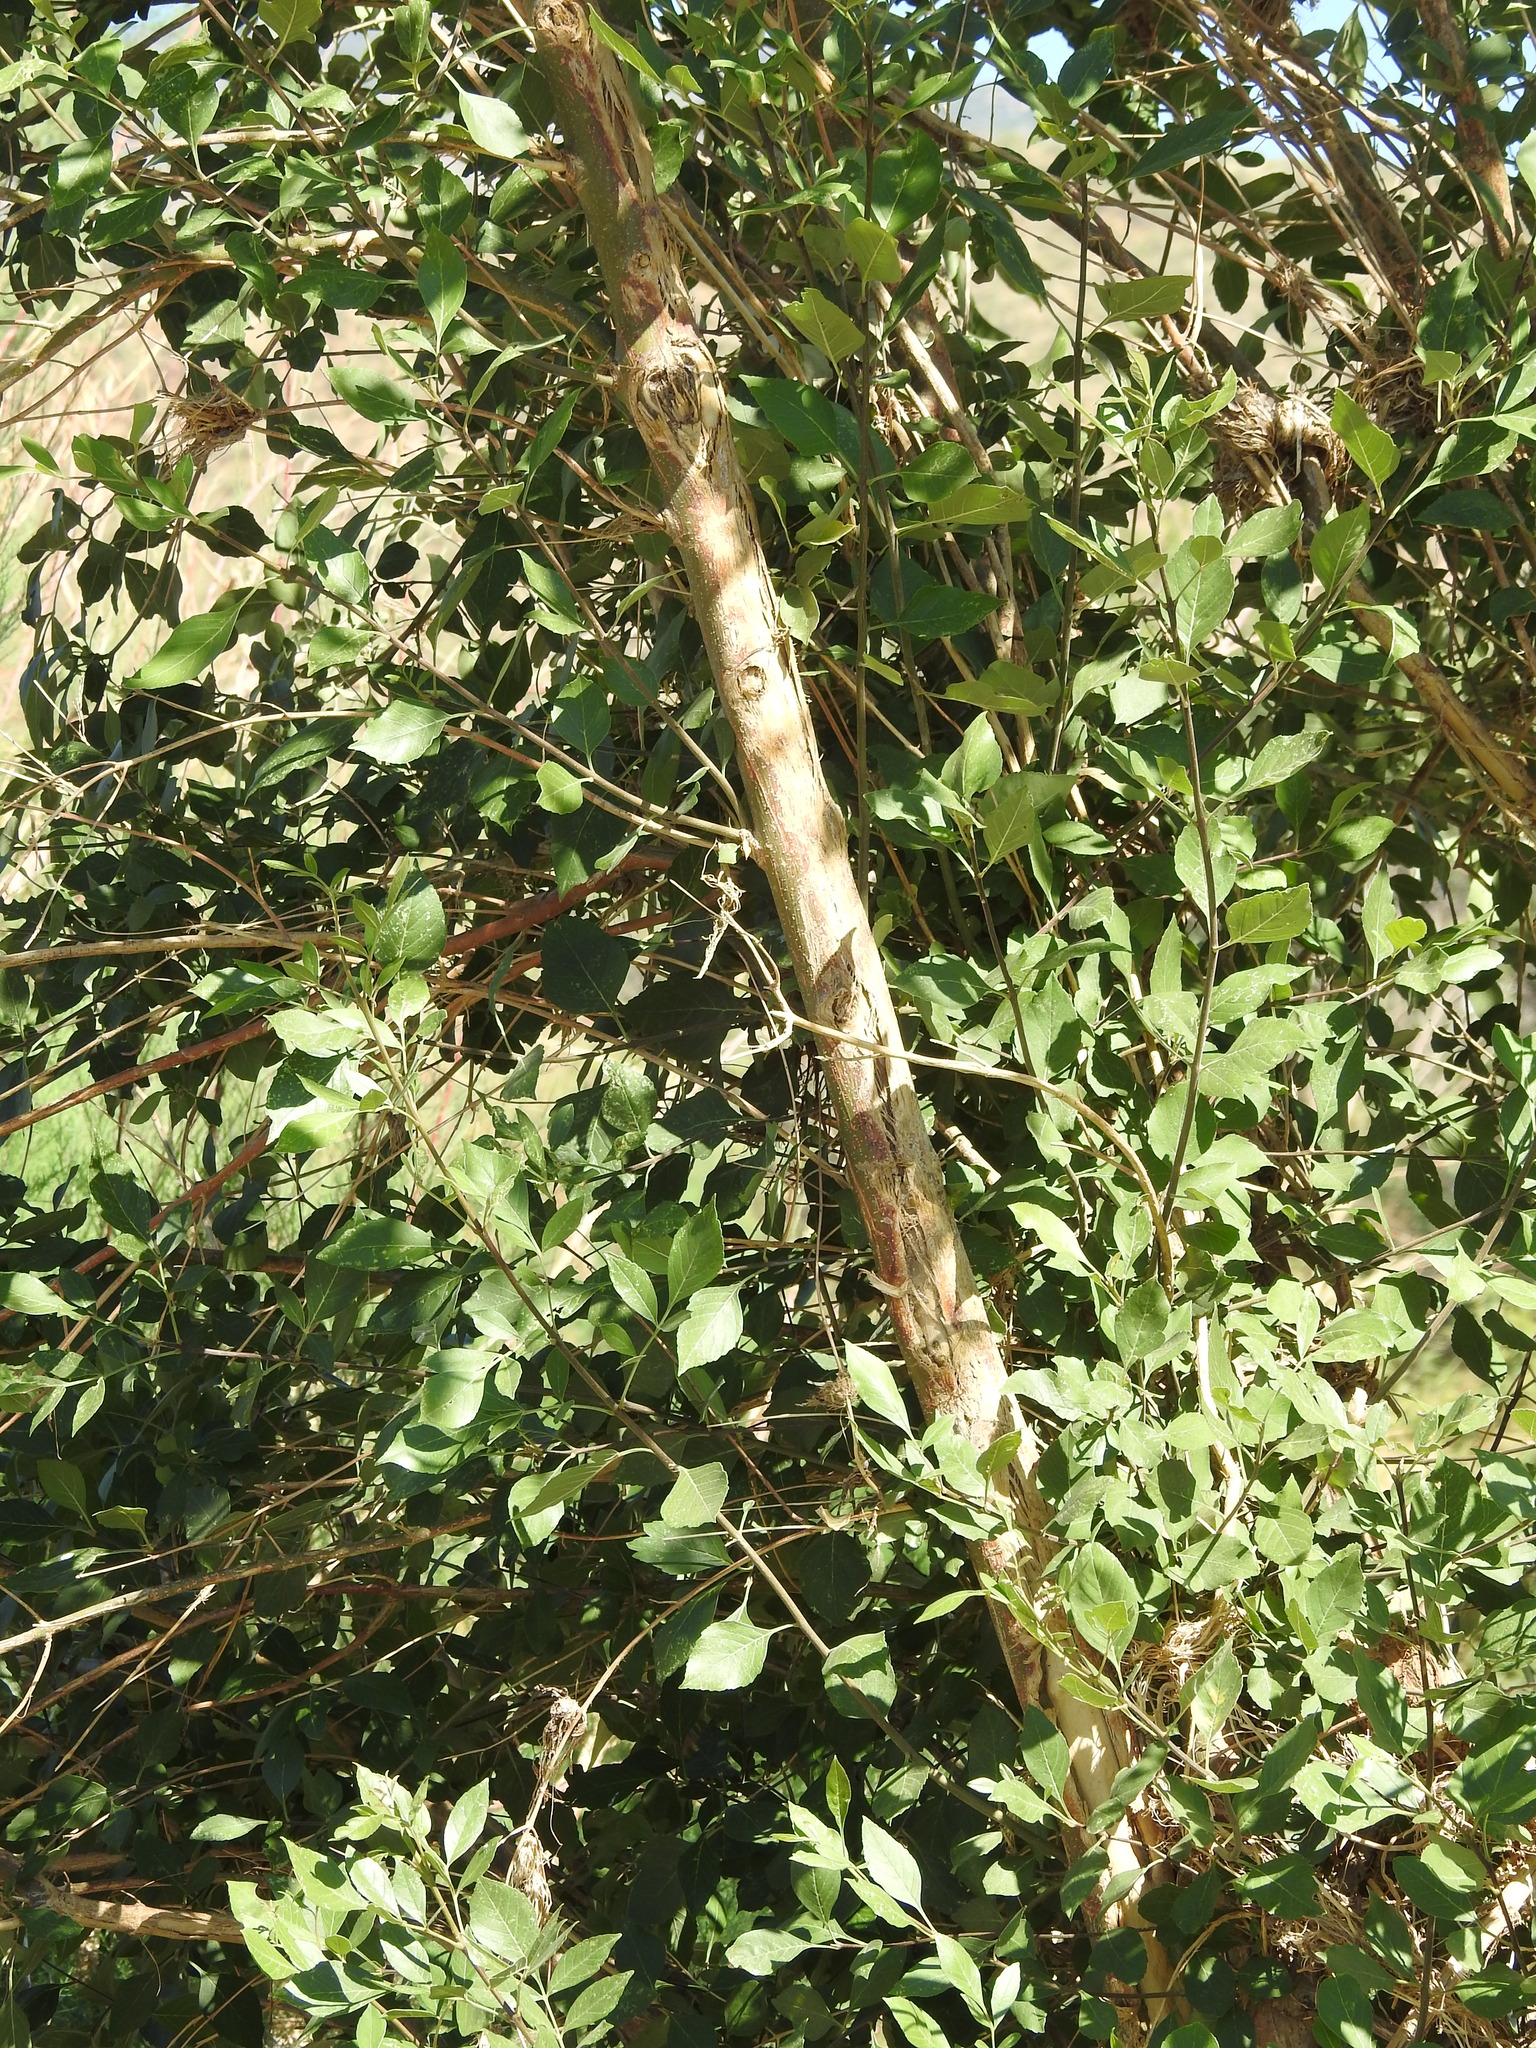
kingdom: Plantae
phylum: Tracheophyta
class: Magnoliopsida
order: Lamiales
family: Oleaceae
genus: Fraxinus
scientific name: Fraxinus velutina
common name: Arizon ash
